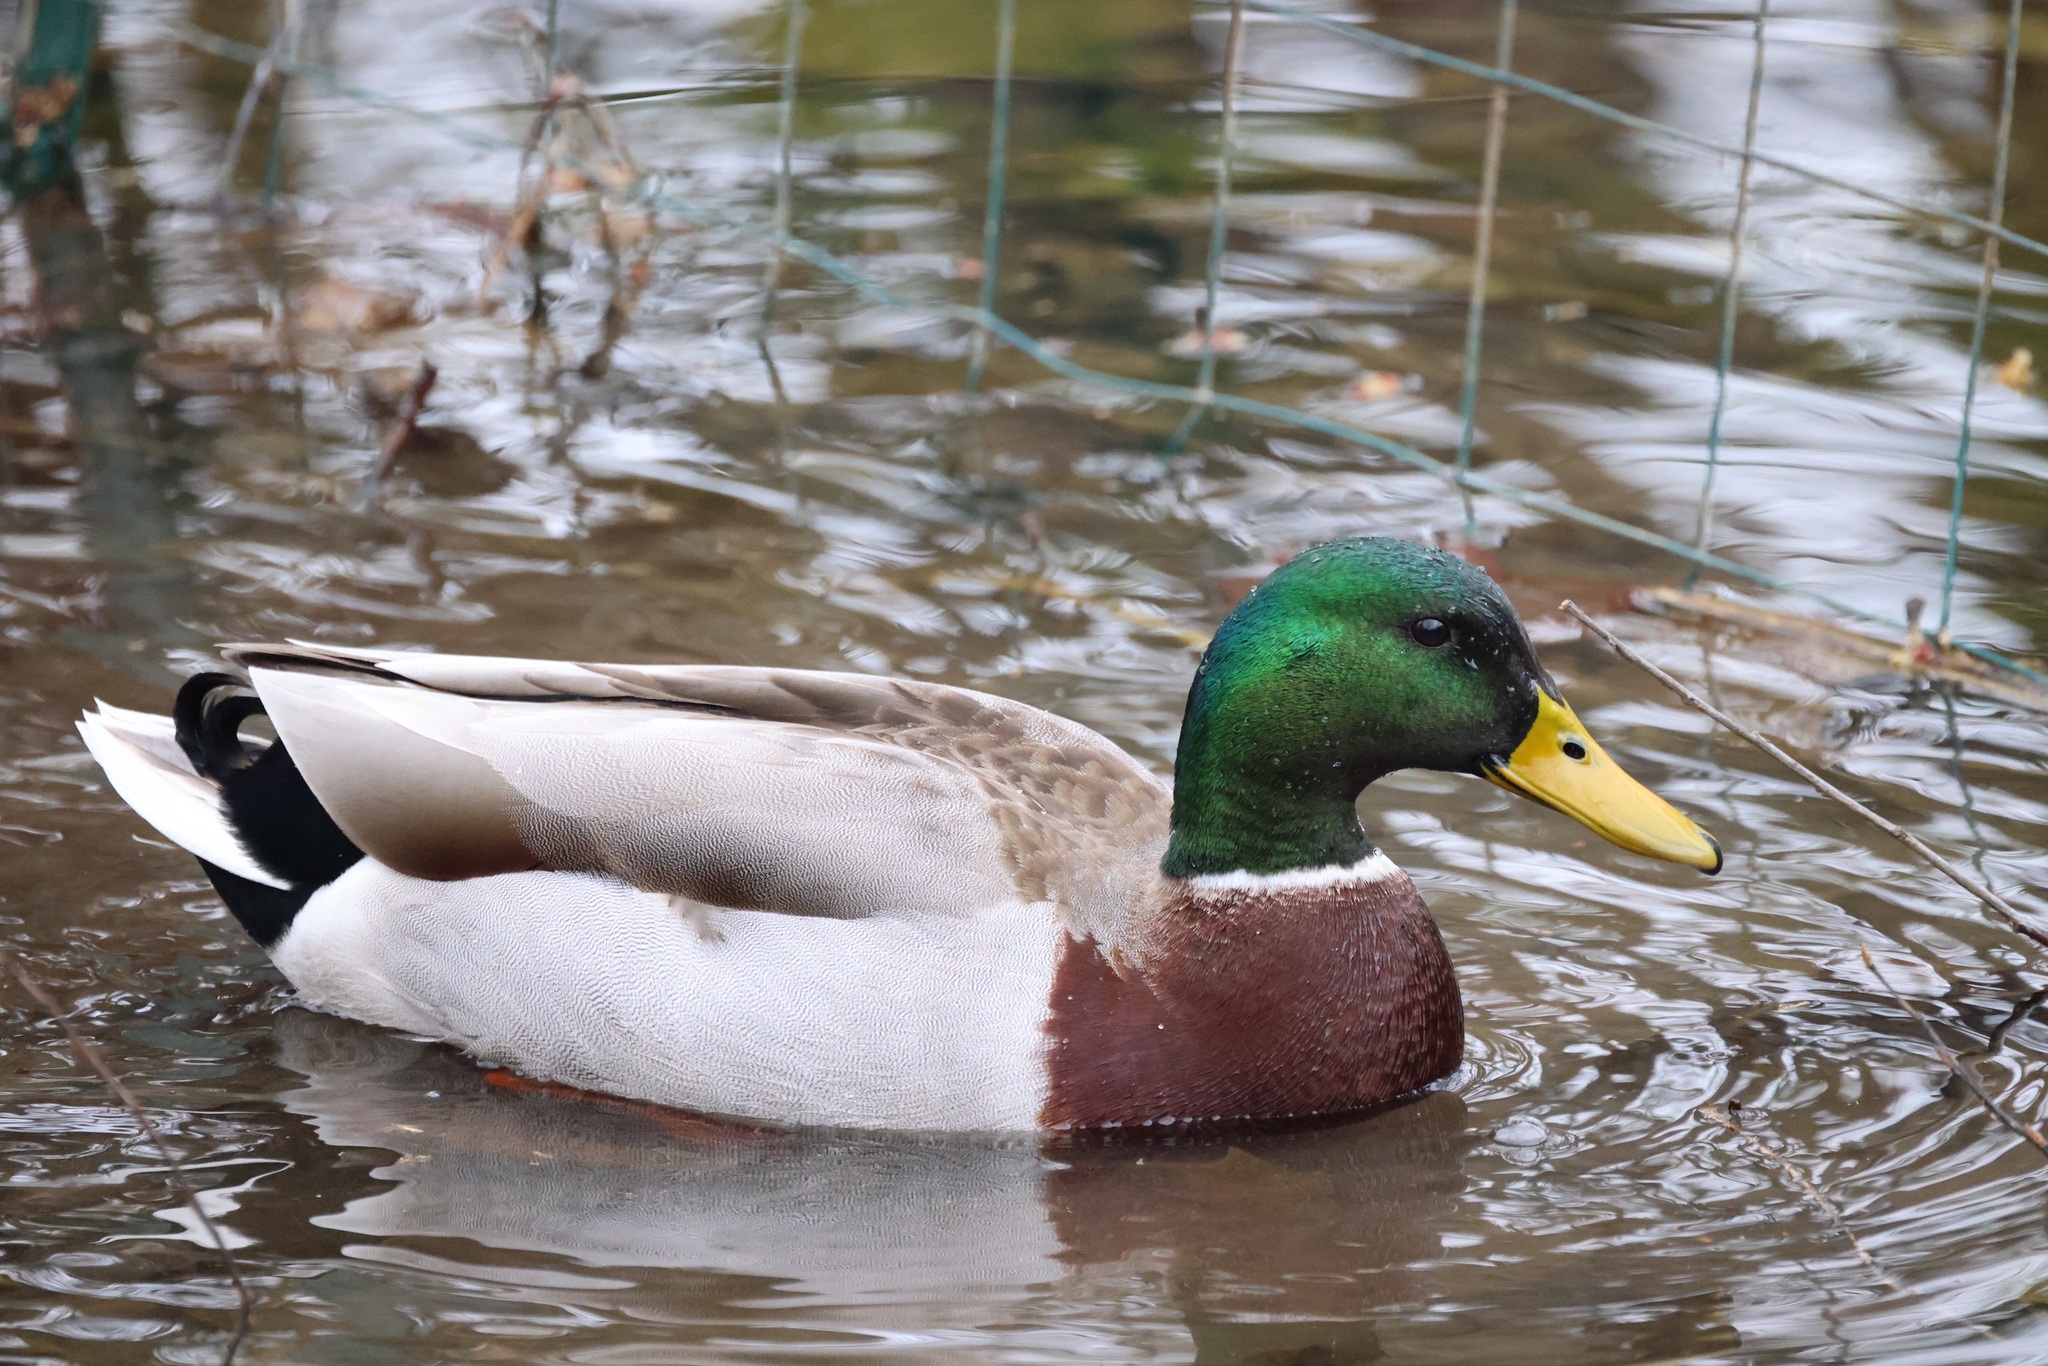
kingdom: Animalia
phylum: Chordata
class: Aves
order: Anseriformes
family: Anatidae
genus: Anas
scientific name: Anas platyrhynchos
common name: Mallard
